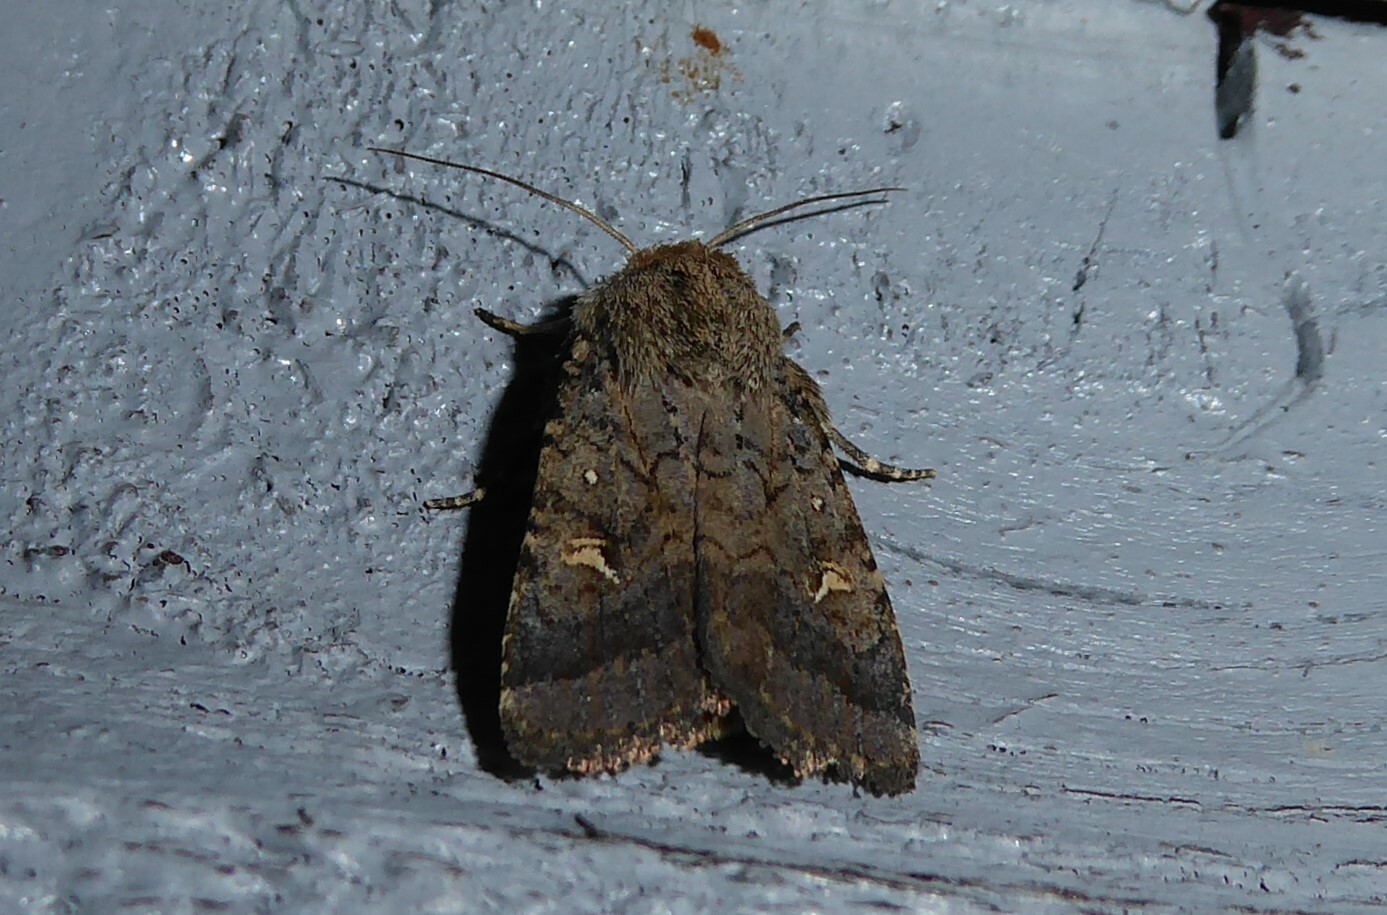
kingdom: Animalia
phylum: Arthropoda
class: Insecta
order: Lepidoptera
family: Noctuidae
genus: Proteuxoa
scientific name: Proteuxoa tetronycha
